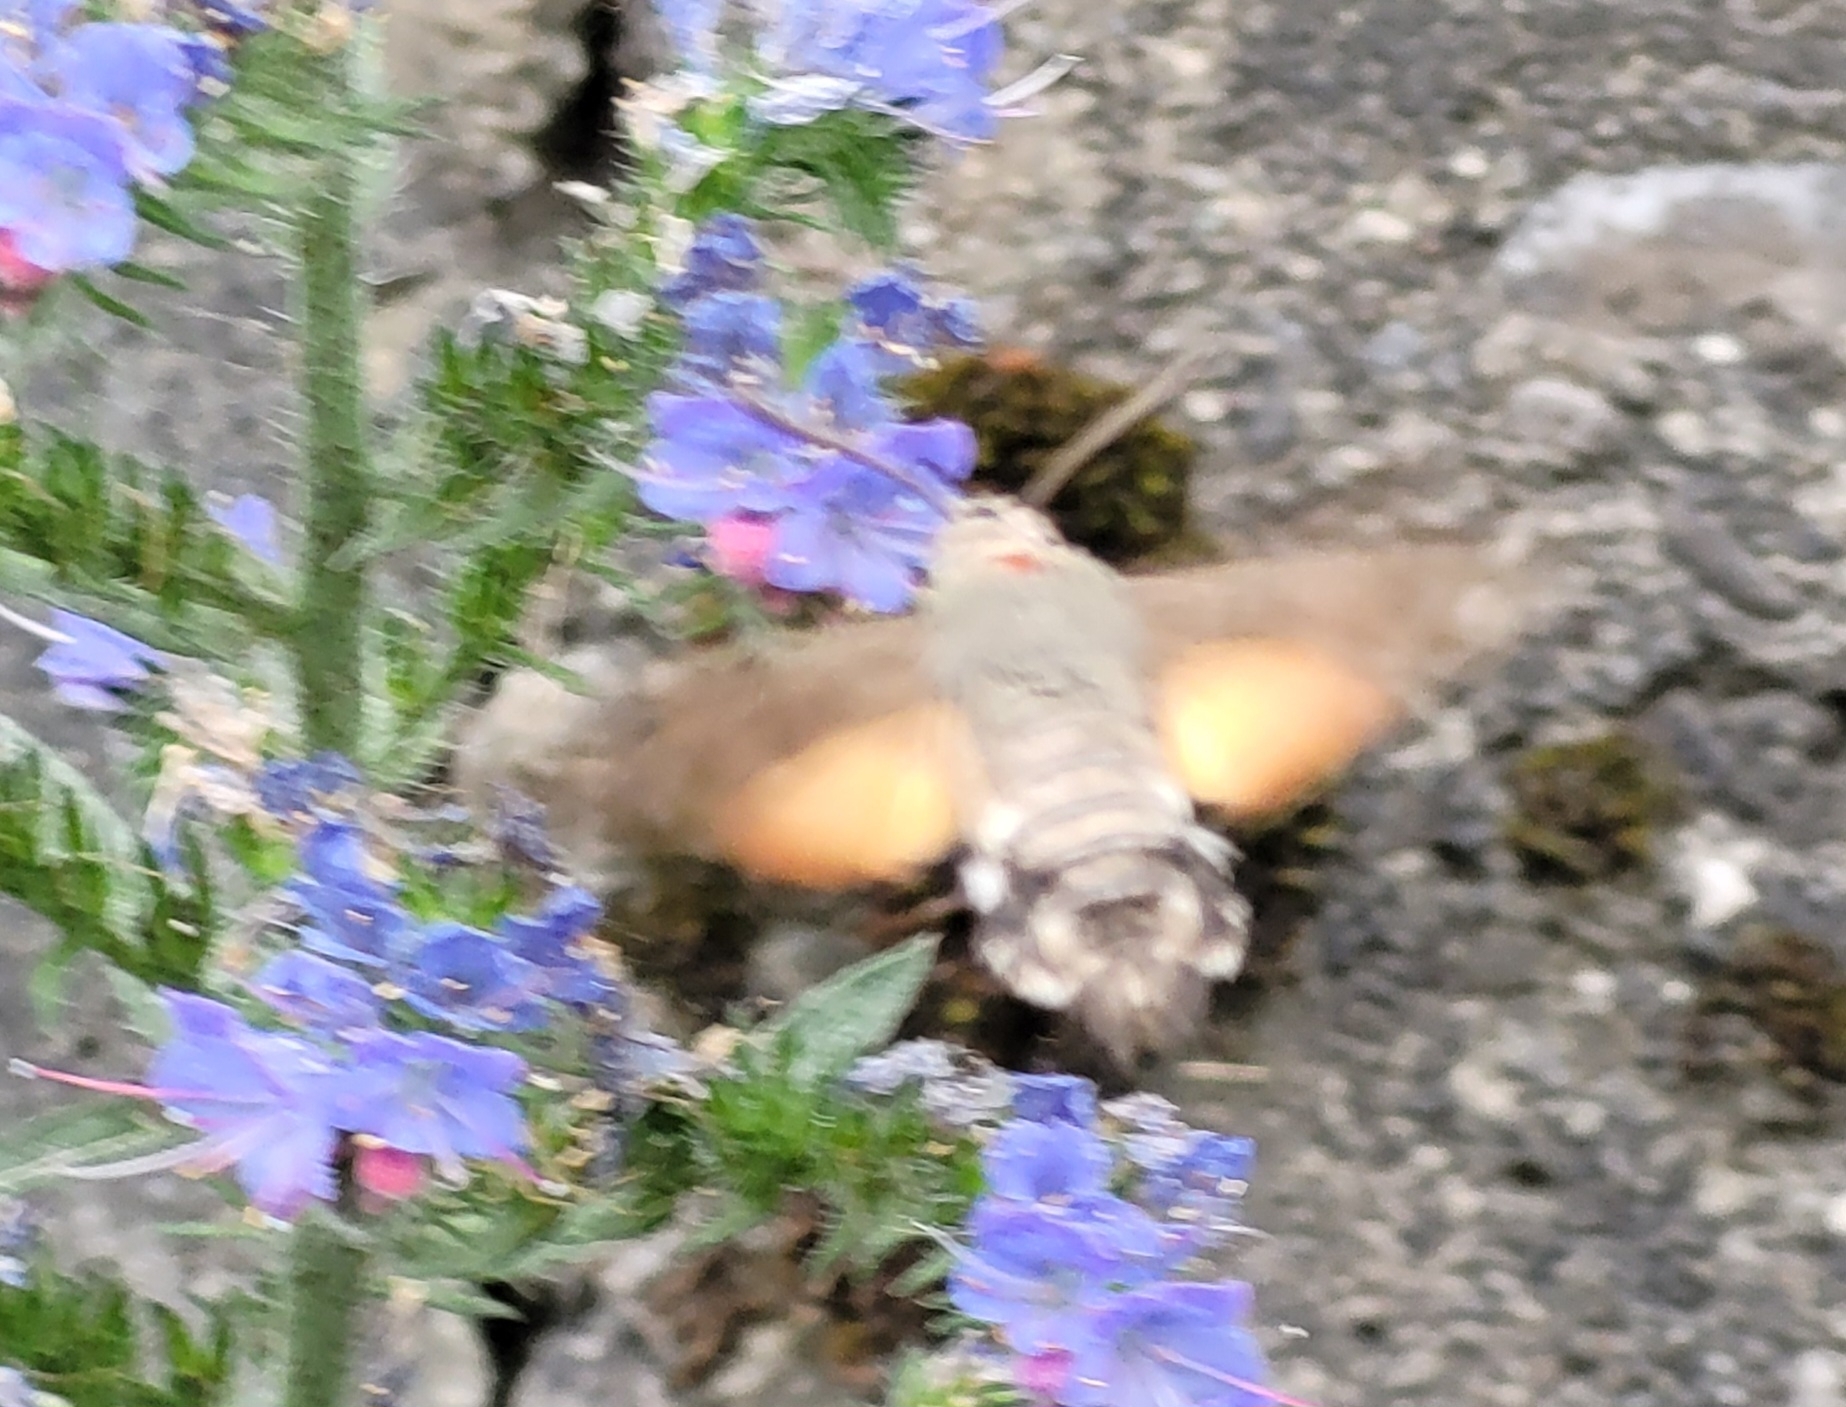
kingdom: Animalia
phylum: Arthropoda
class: Insecta
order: Lepidoptera
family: Sphingidae
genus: Macroglossum
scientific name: Macroglossum stellatarum
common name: Humming-bird hawk-moth
